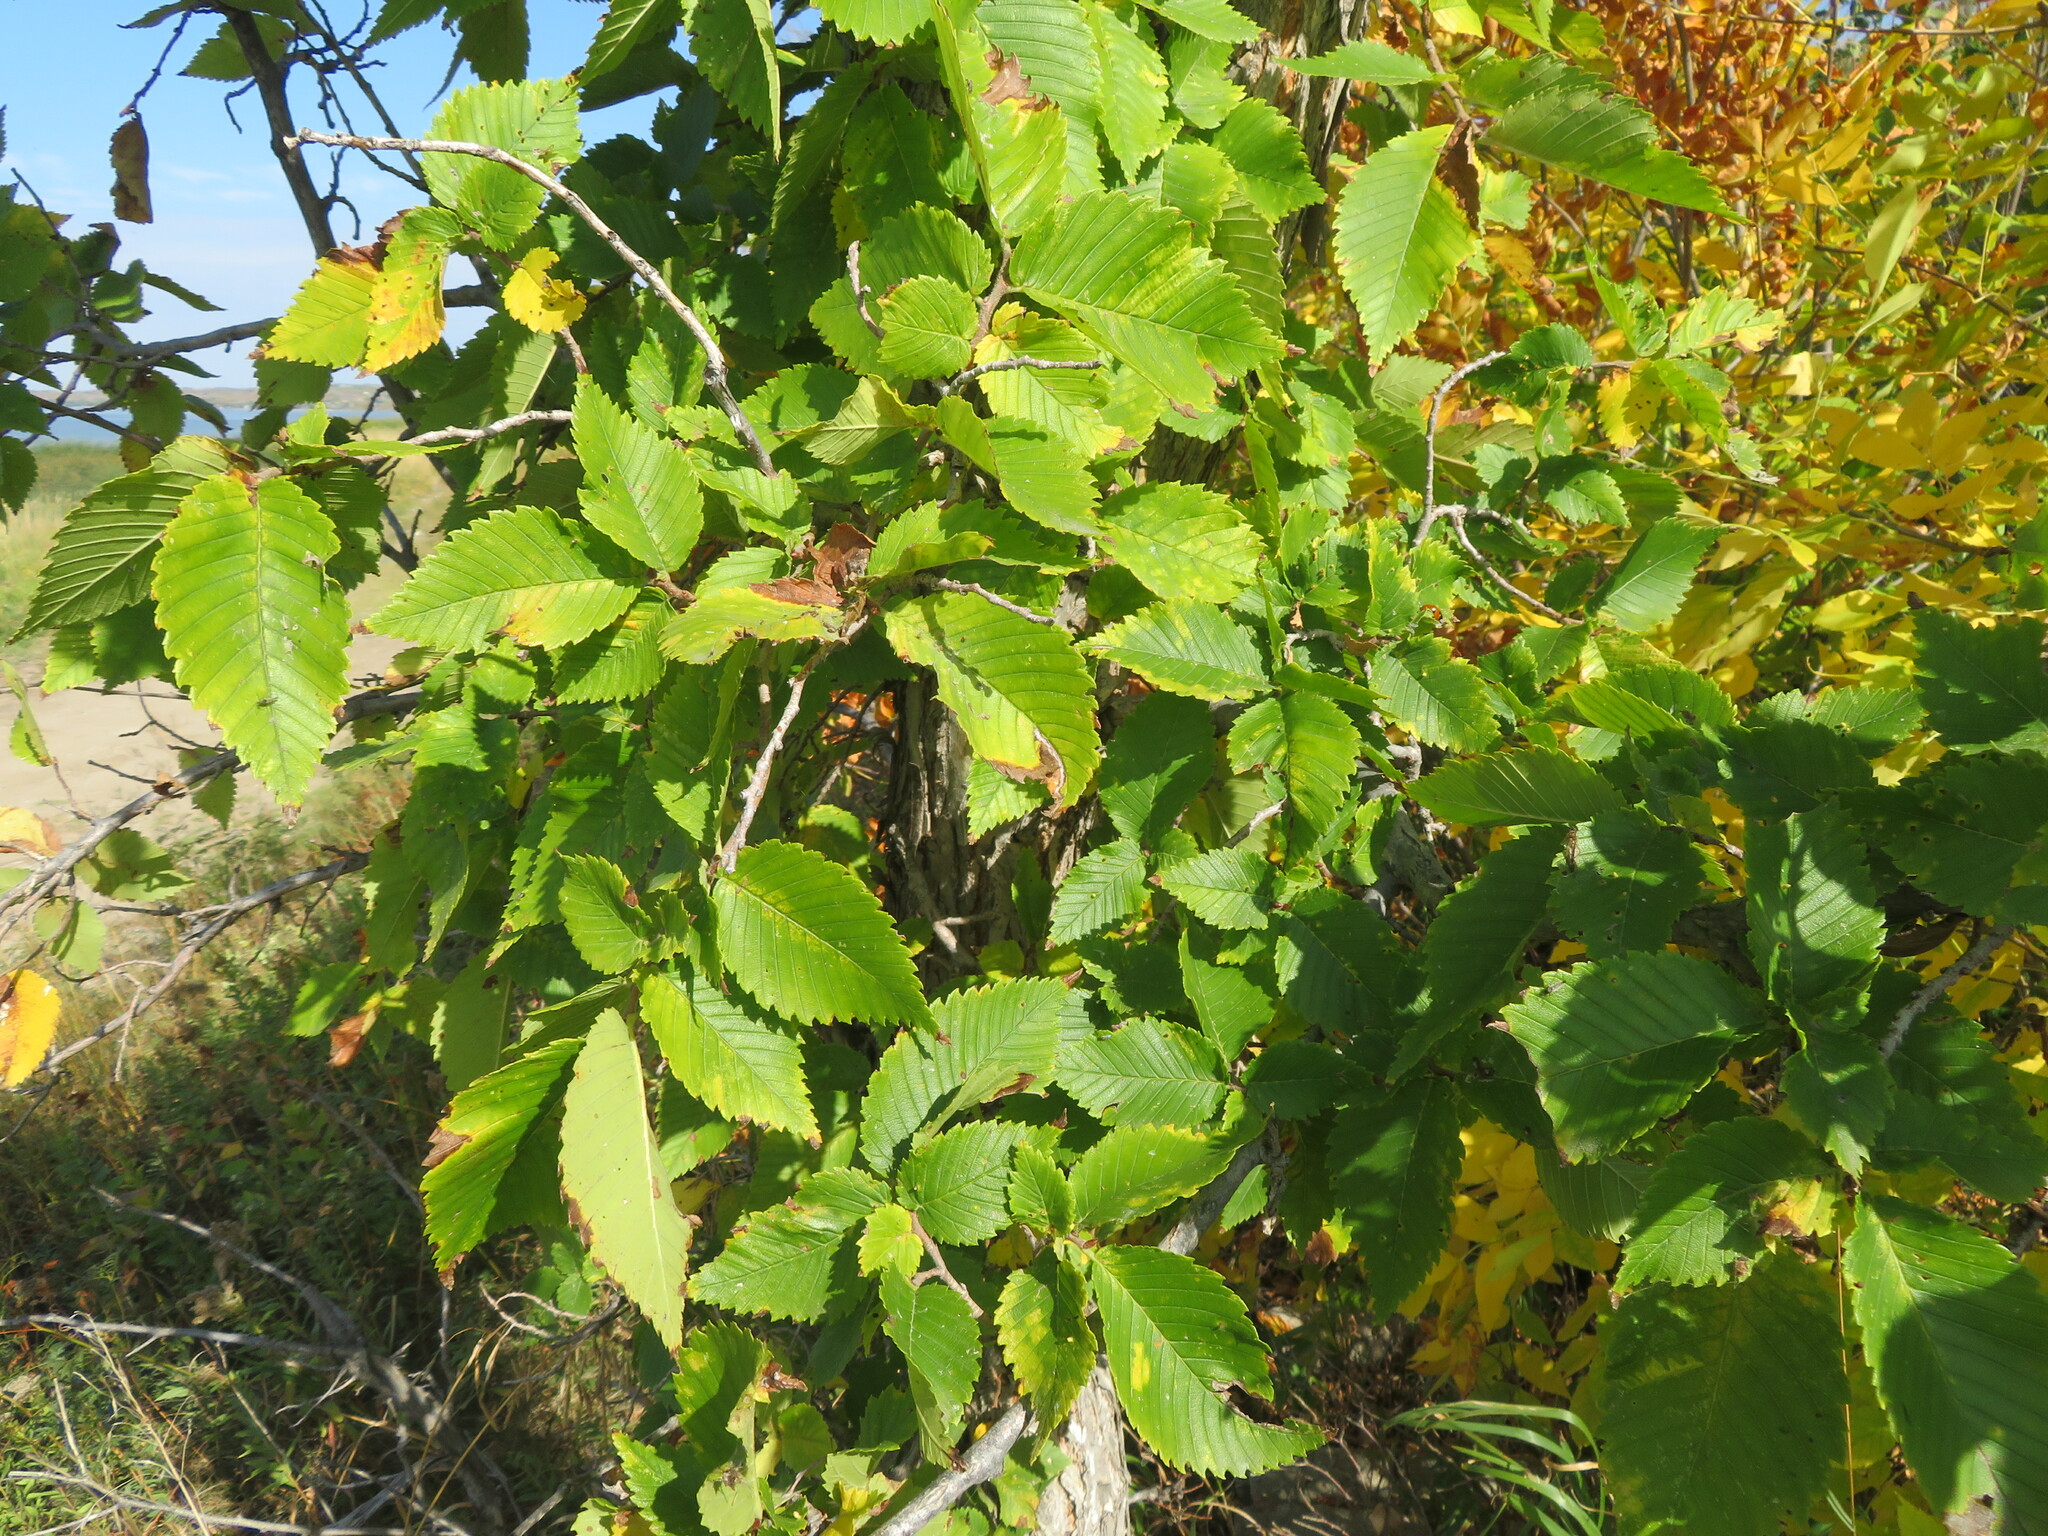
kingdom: Plantae
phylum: Tracheophyta
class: Magnoliopsida
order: Rosales
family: Ulmaceae
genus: Ulmus
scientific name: Ulmus americana
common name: American elm
